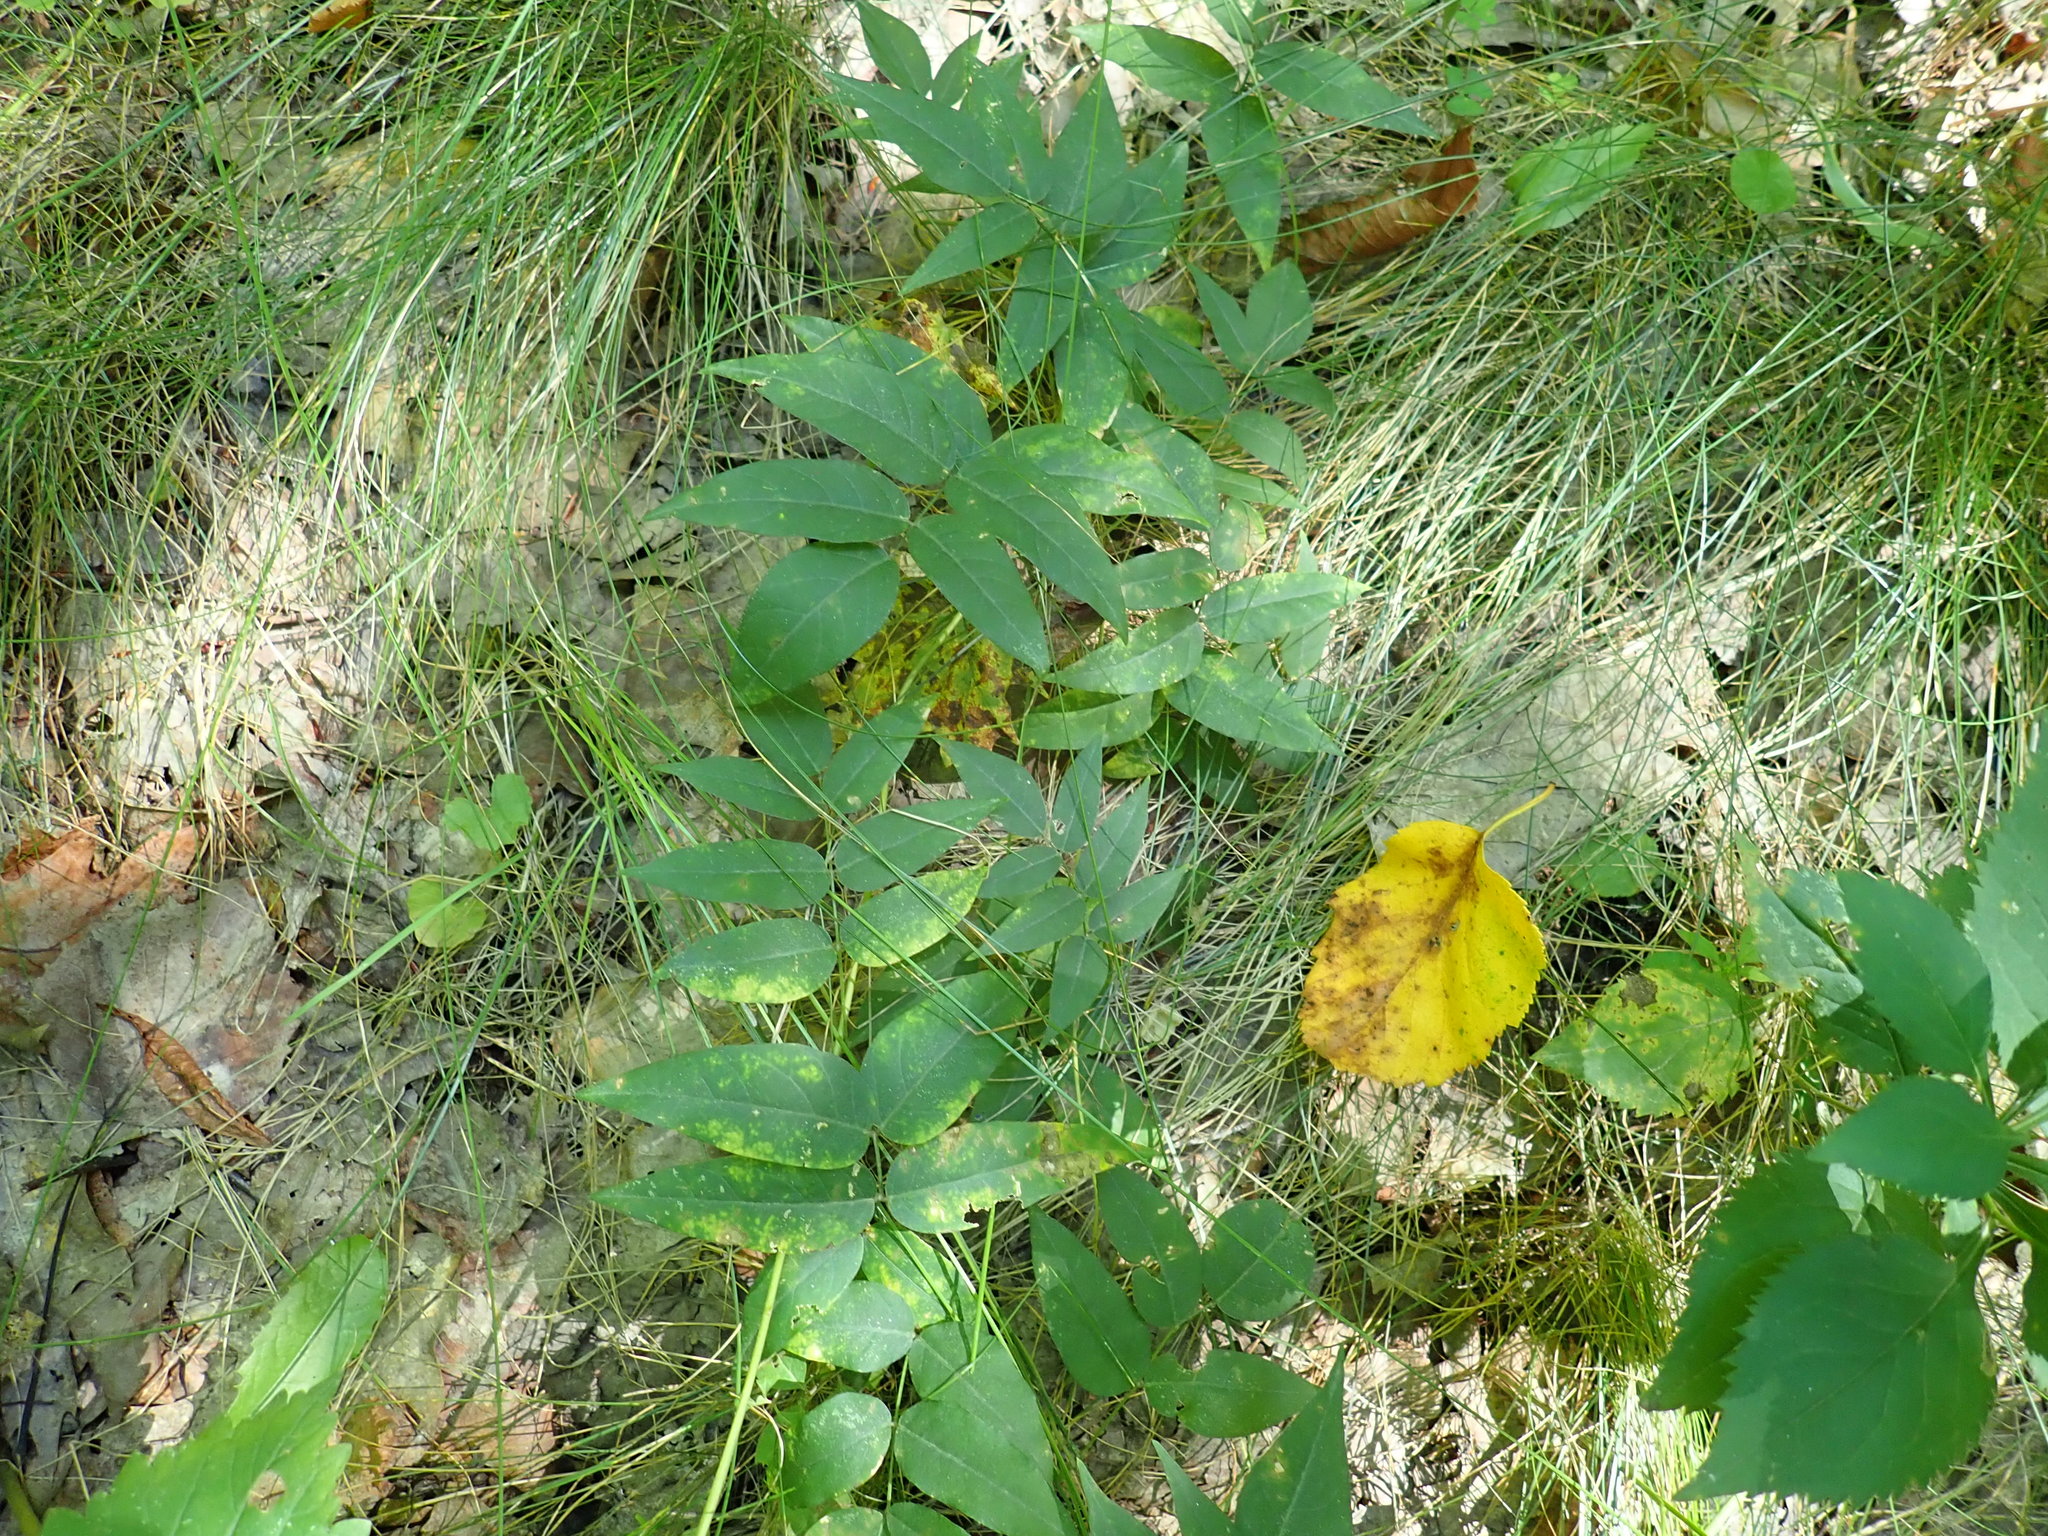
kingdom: Plantae
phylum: Tracheophyta
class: Magnoliopsida
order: Fabales
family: Fabaceae
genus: Apios
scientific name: Apios americana
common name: American potato-bean
